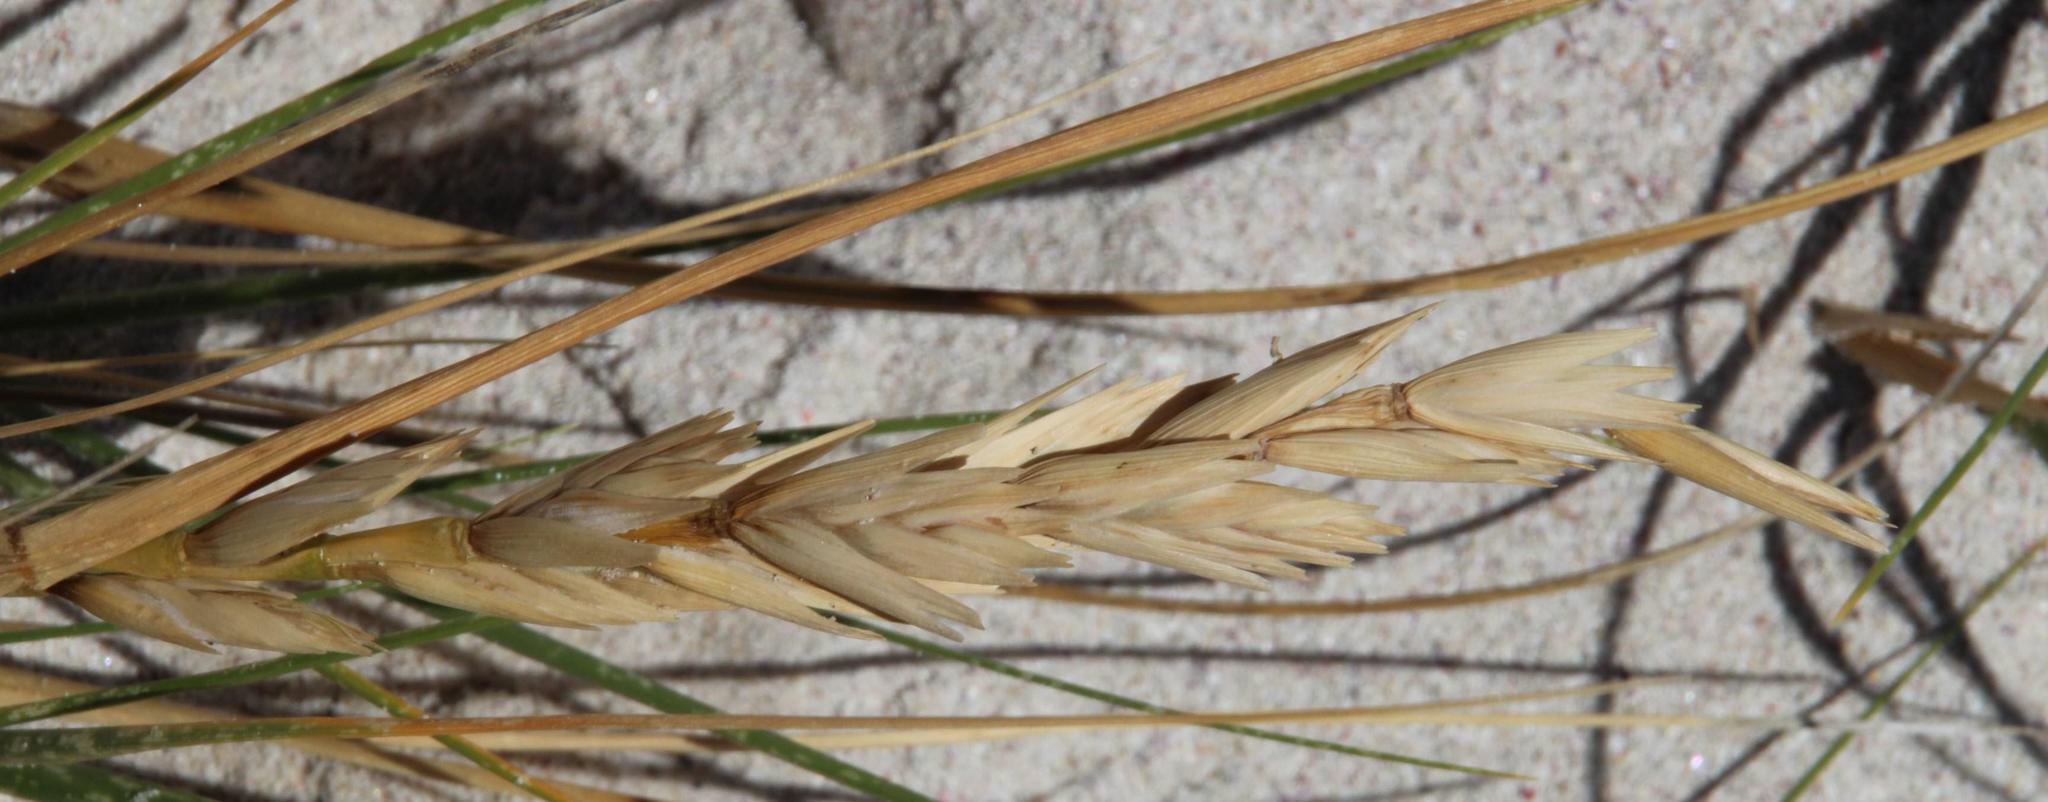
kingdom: Plantae
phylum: Tracheophyta
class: Liliopsida
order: Poales
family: Poaceae
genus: Thinopyrum
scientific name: Thinopyrum distichum
